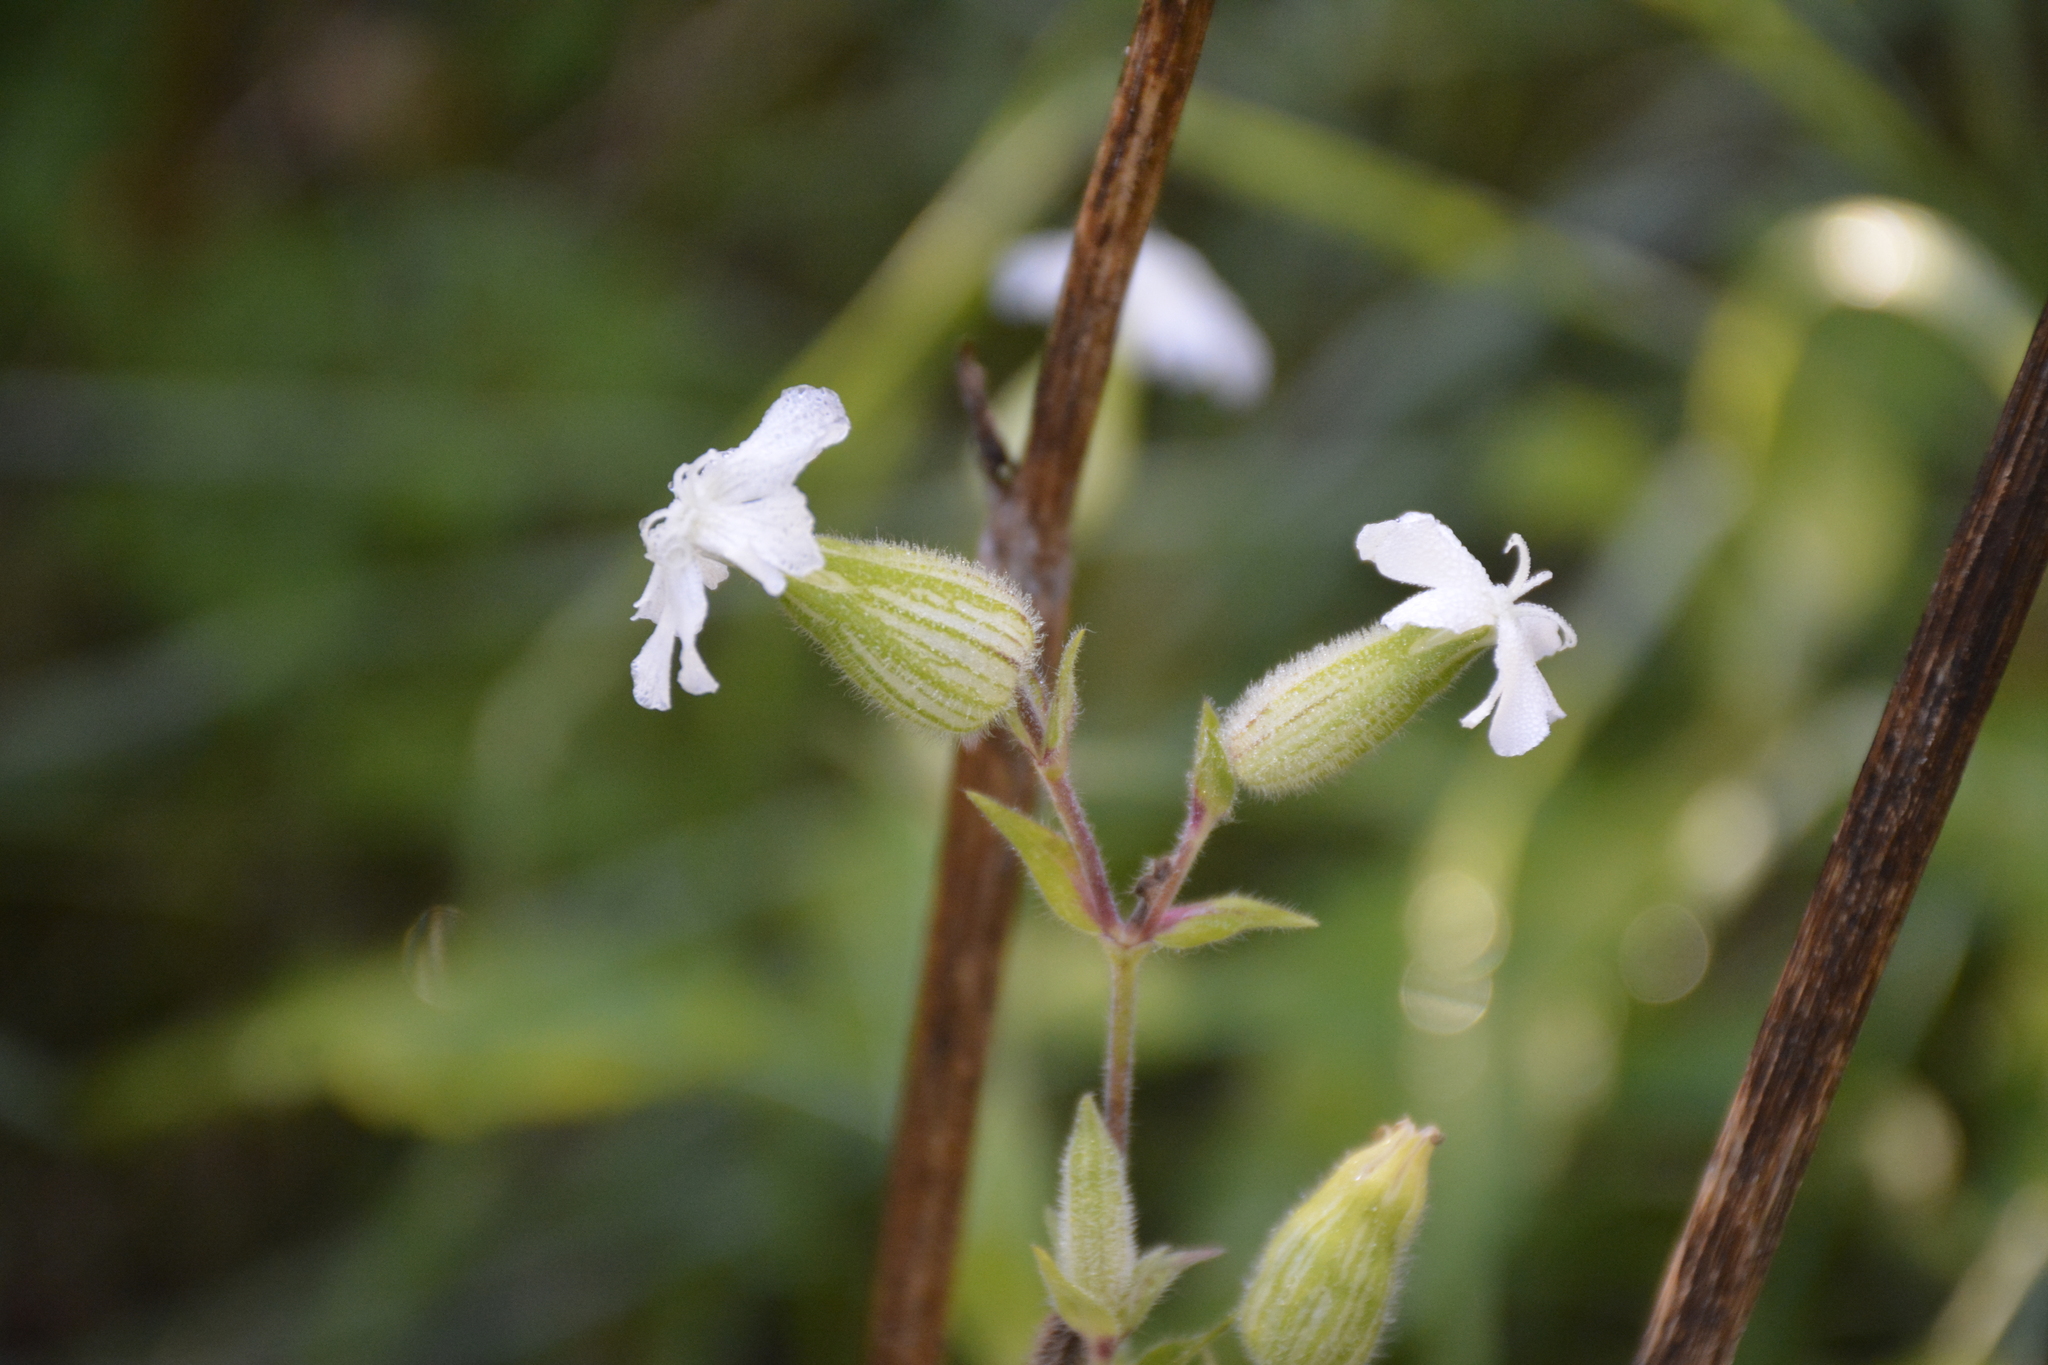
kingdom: Plantae
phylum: Tracheophyta
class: Magnoliopsida
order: Caryophyllales
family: Caryophyllaceae
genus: Silene
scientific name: Silene latifolia
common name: White campion
